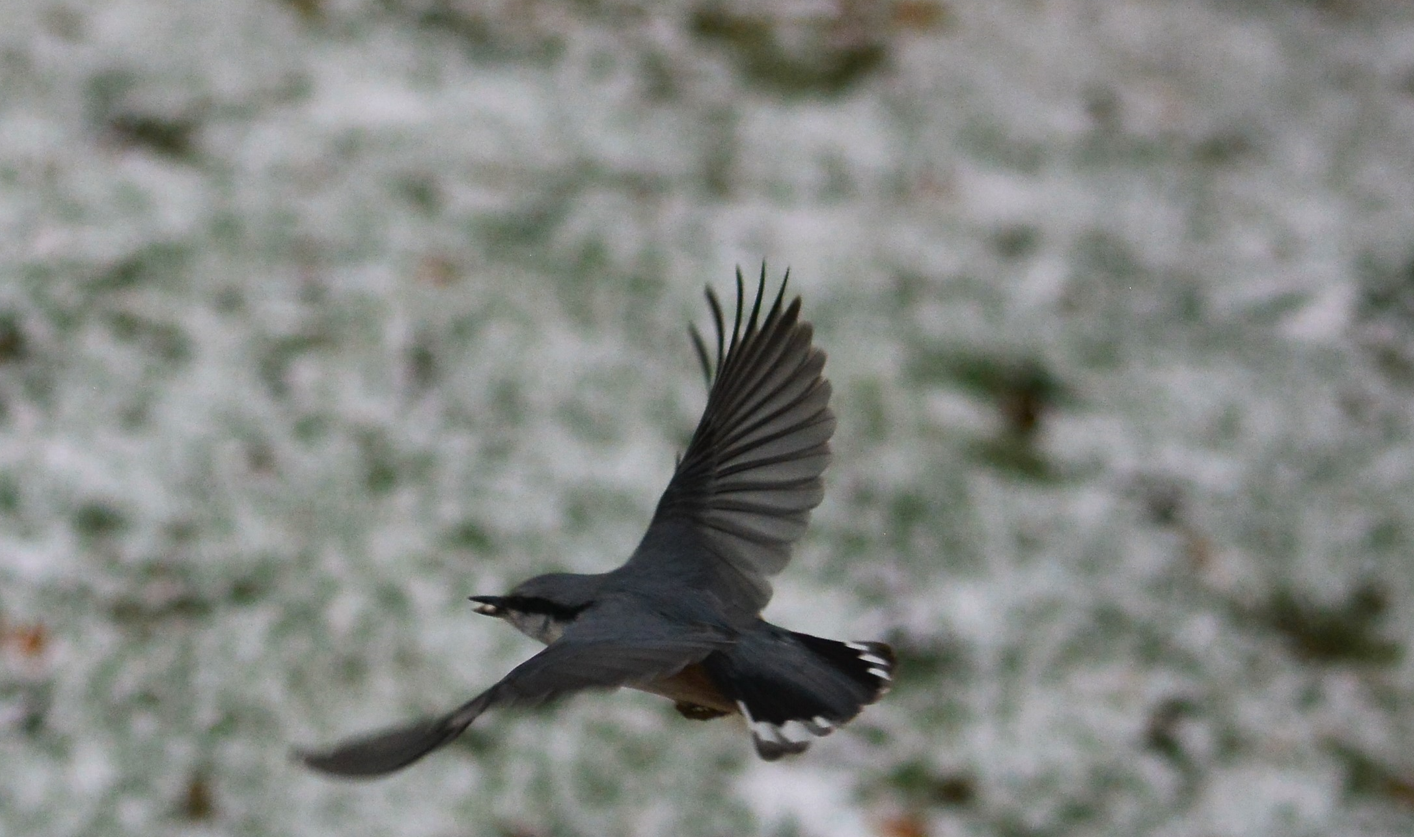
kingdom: Animalia
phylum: Chordata
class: Aves
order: Passeriformes
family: Sittidae
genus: Sitta
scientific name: Sitta europaea
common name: Eurasian nuthatch
